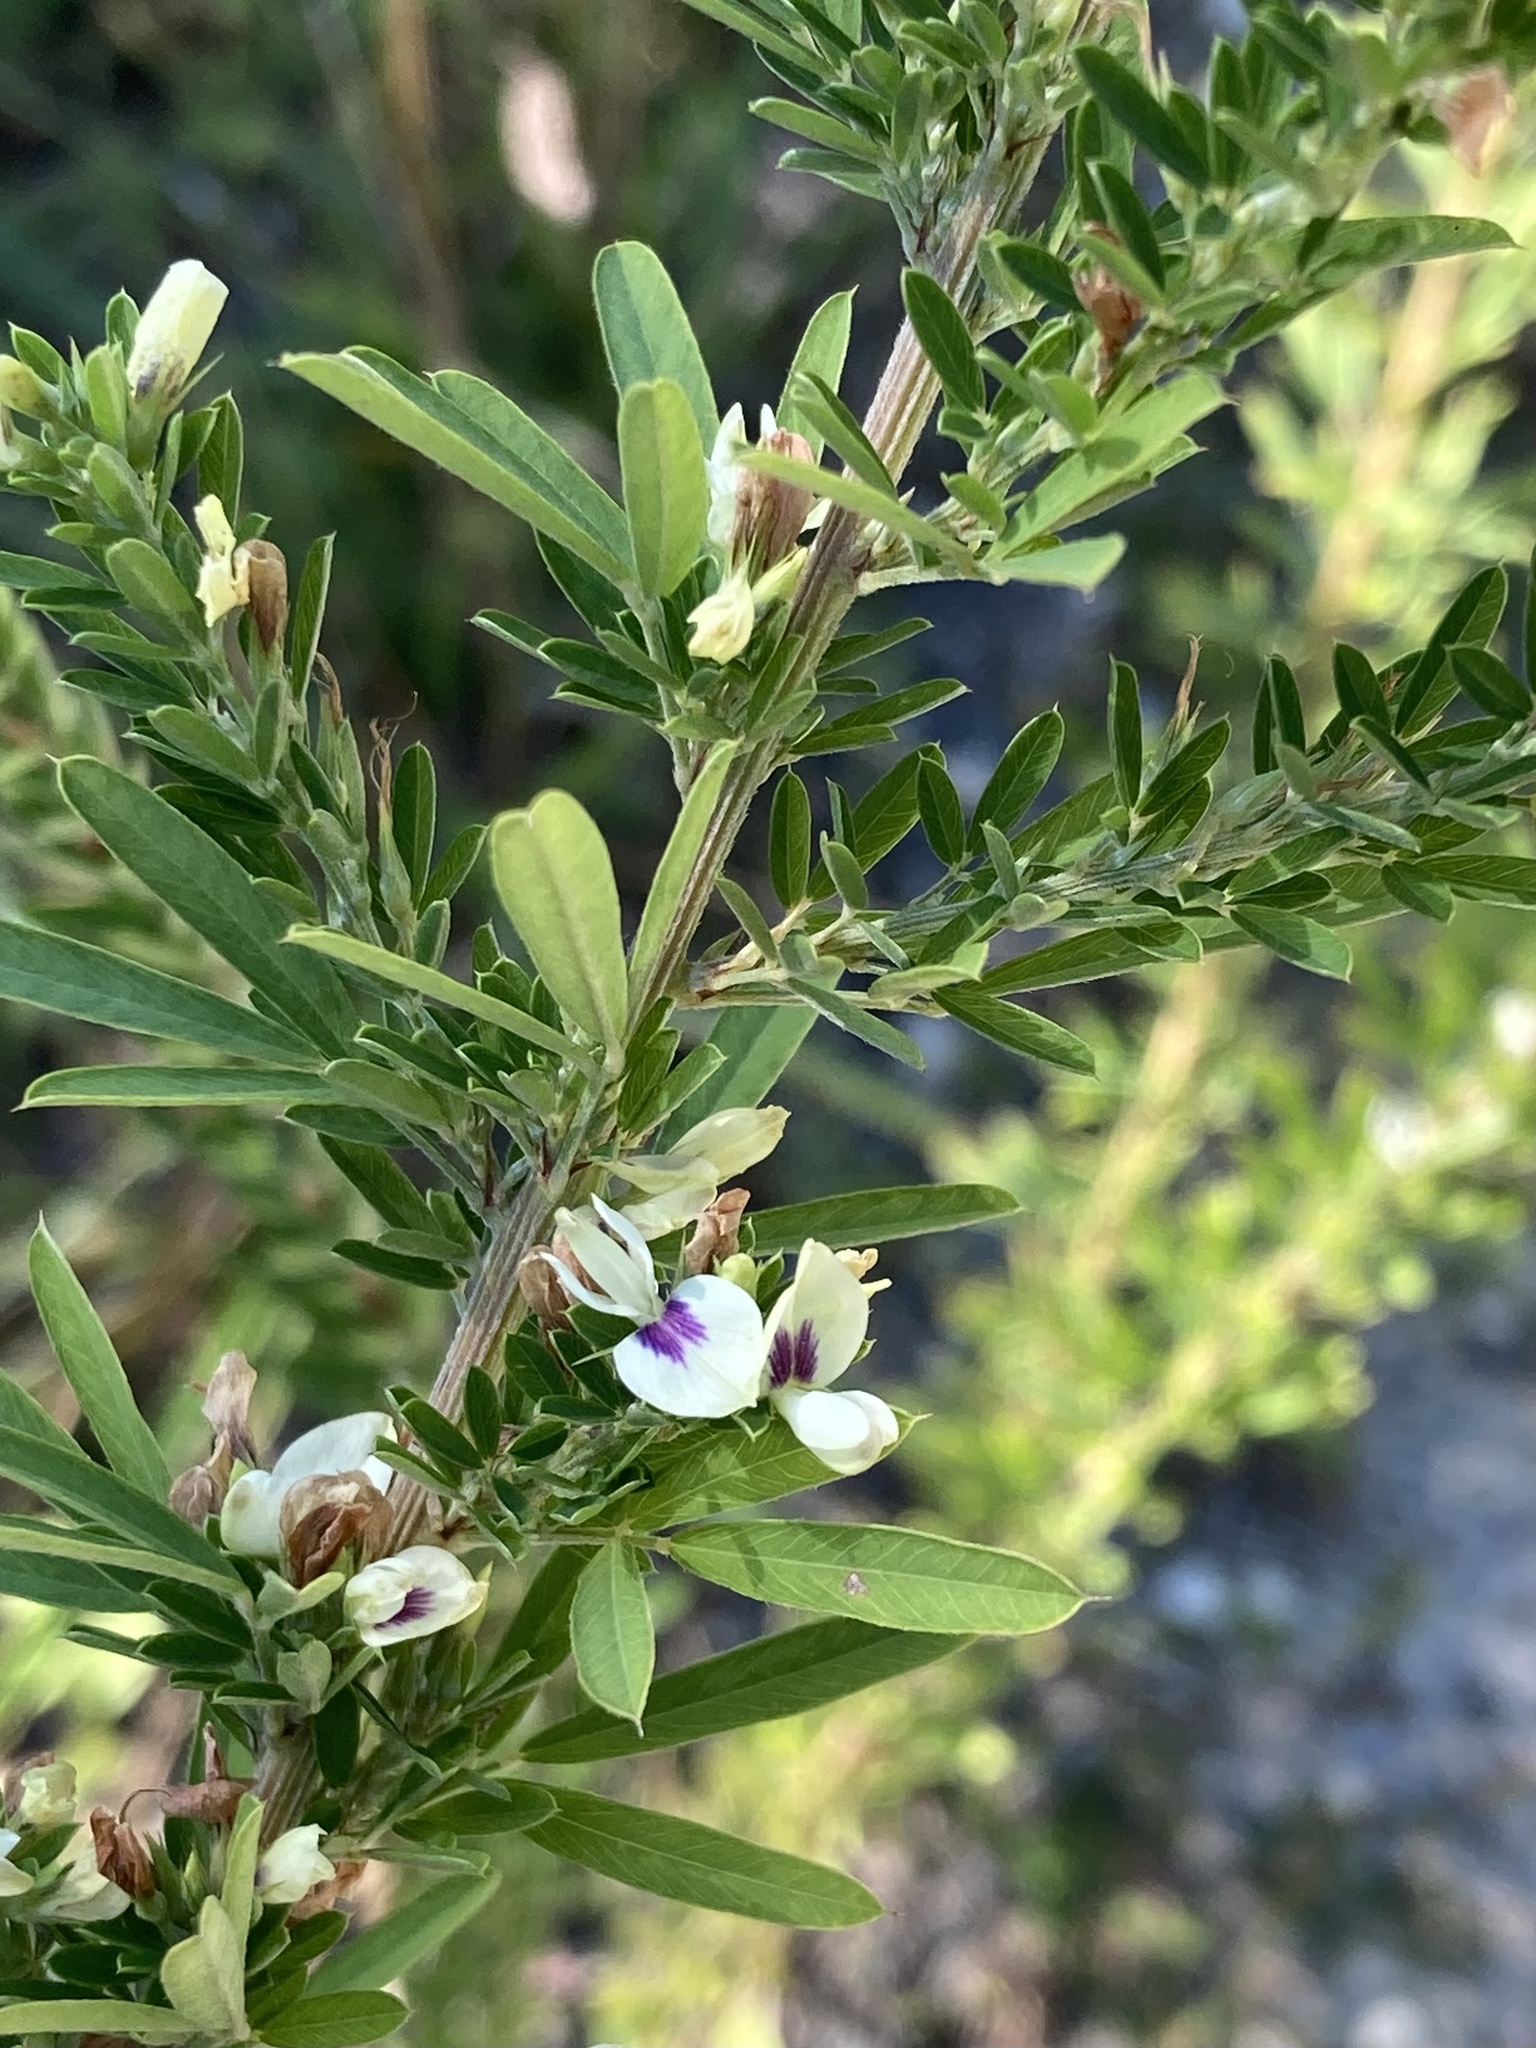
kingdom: Plantae
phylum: Tracheophyta
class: Magnoliopsida
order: Fabales
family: Fabaceae
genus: Lespedeza
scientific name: Lespedeza cuneata
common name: Chinese bush-clover
